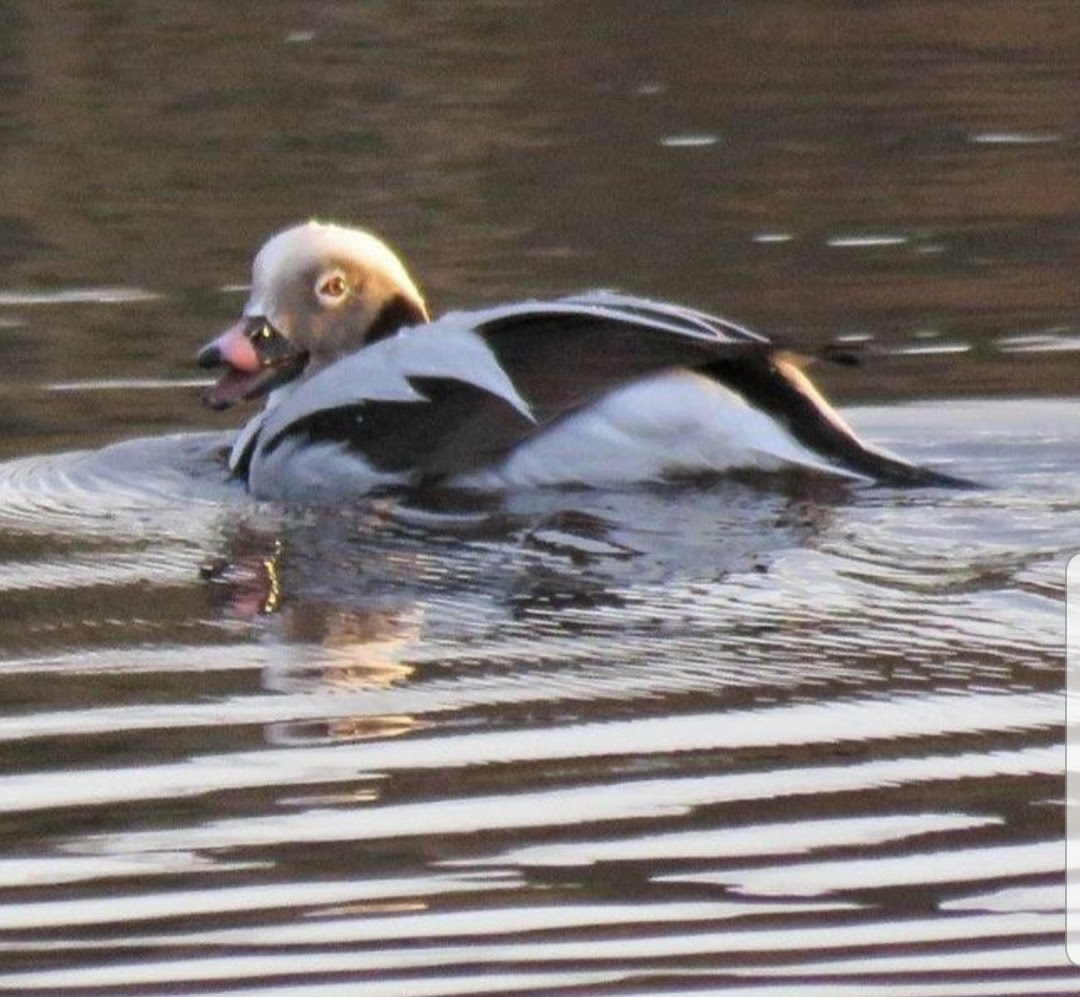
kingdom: Animalia
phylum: Chordata
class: Aves
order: Anseriformes
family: Anatidae
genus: Clangula
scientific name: Clangula hyemalis
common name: Long-tailed duck
